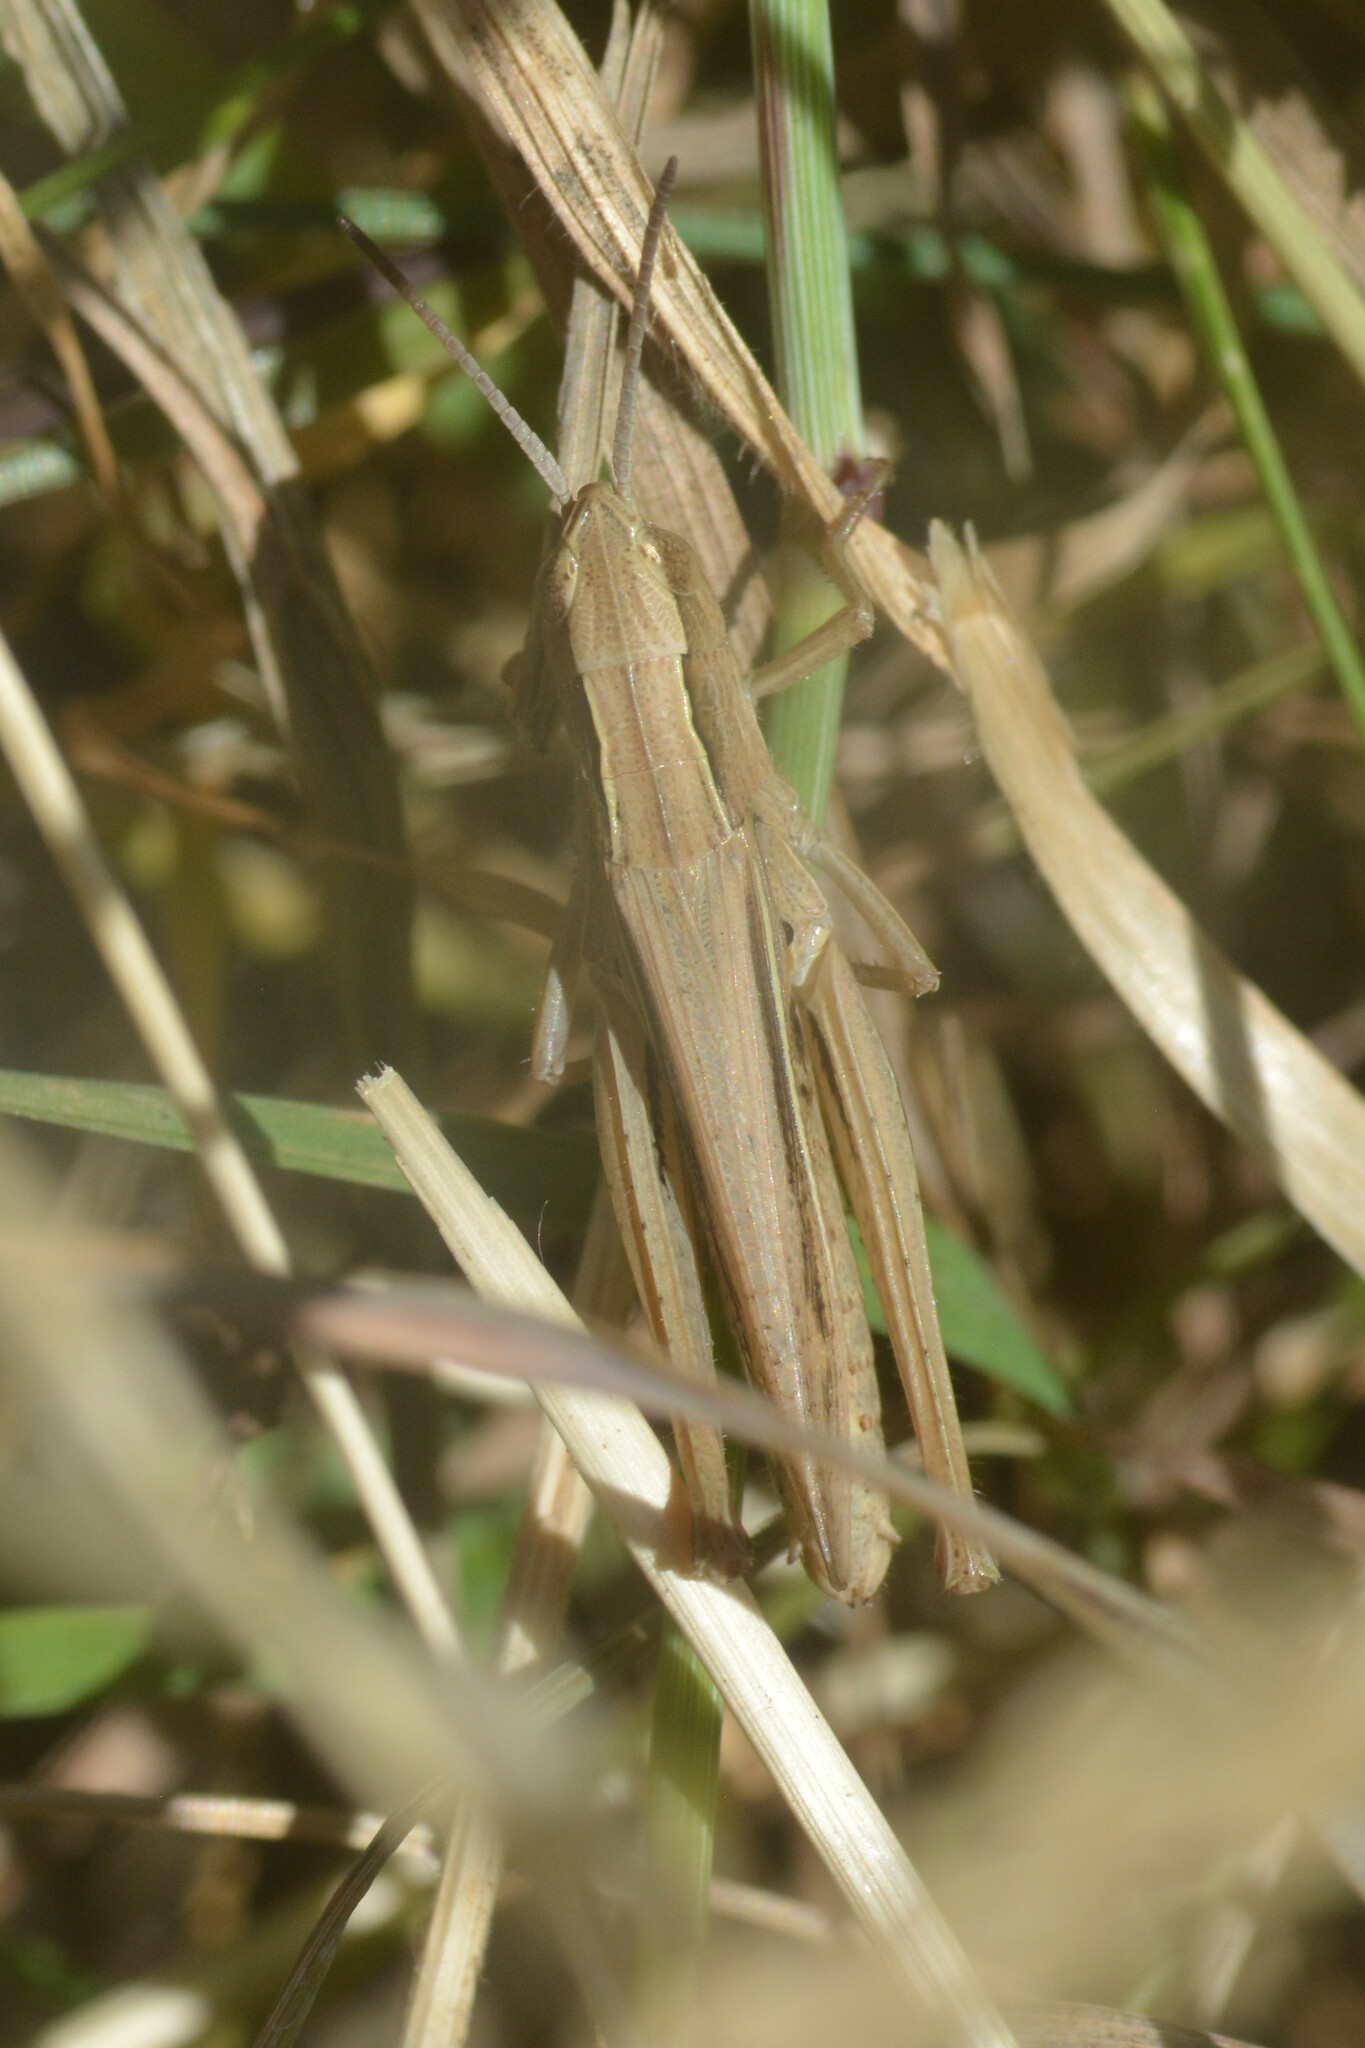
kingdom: Animalia
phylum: Arthropoda
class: Insecta
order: Orthoptera
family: Acrididae
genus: Chorthippus
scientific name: Chorthippus albomarginatus
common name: Lesser marsh grasshopper
